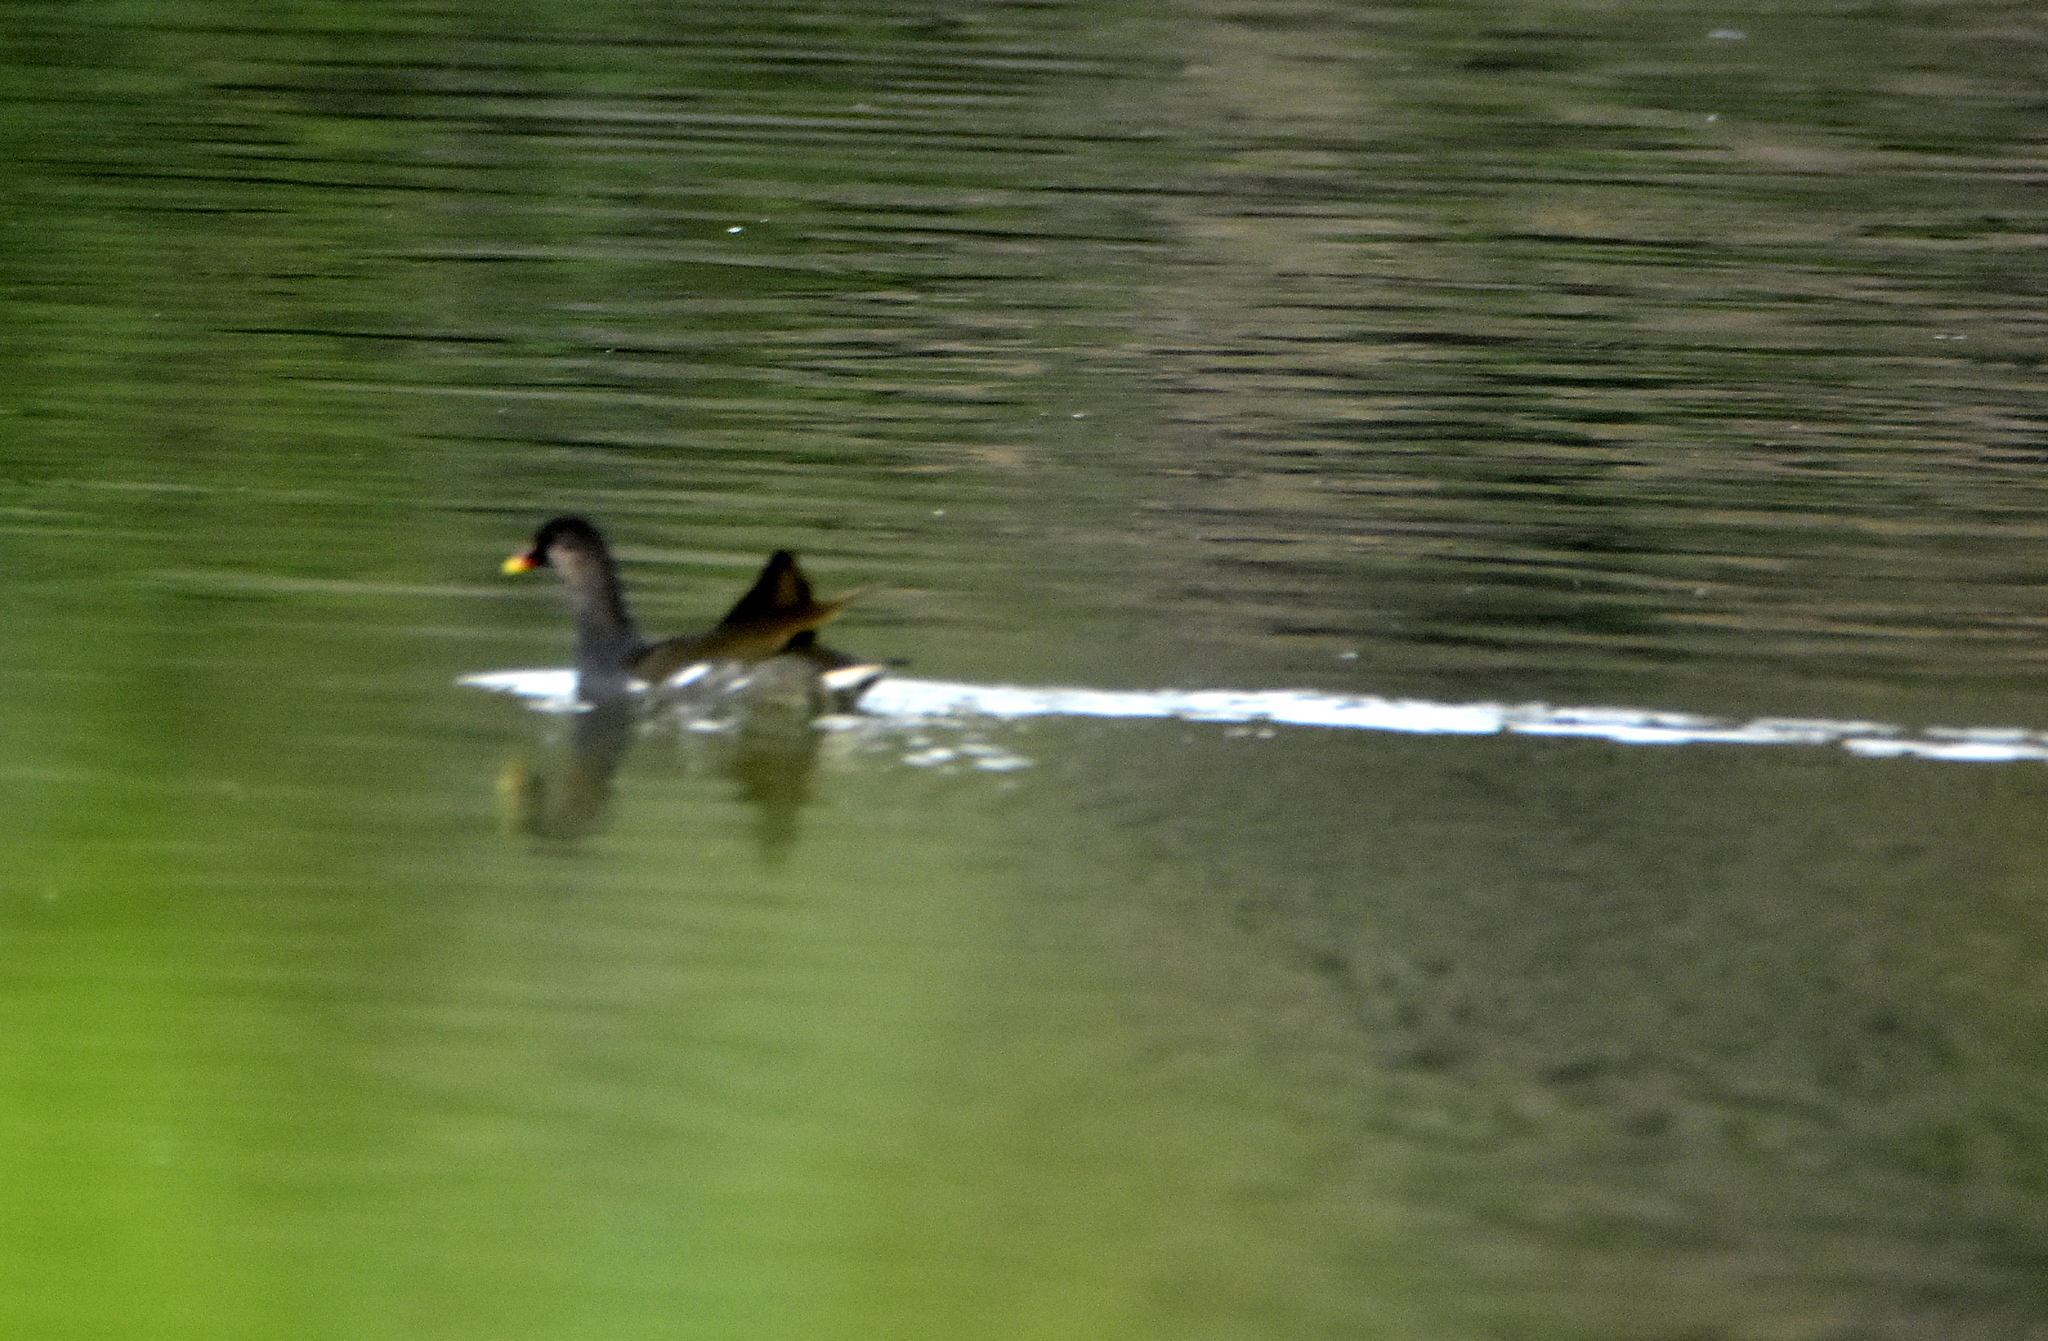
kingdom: Animalia
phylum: Chordata
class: Aves
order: Gruiformes
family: Rallidae
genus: Gallinula
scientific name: Gallinula chloropus
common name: Common moorhen
